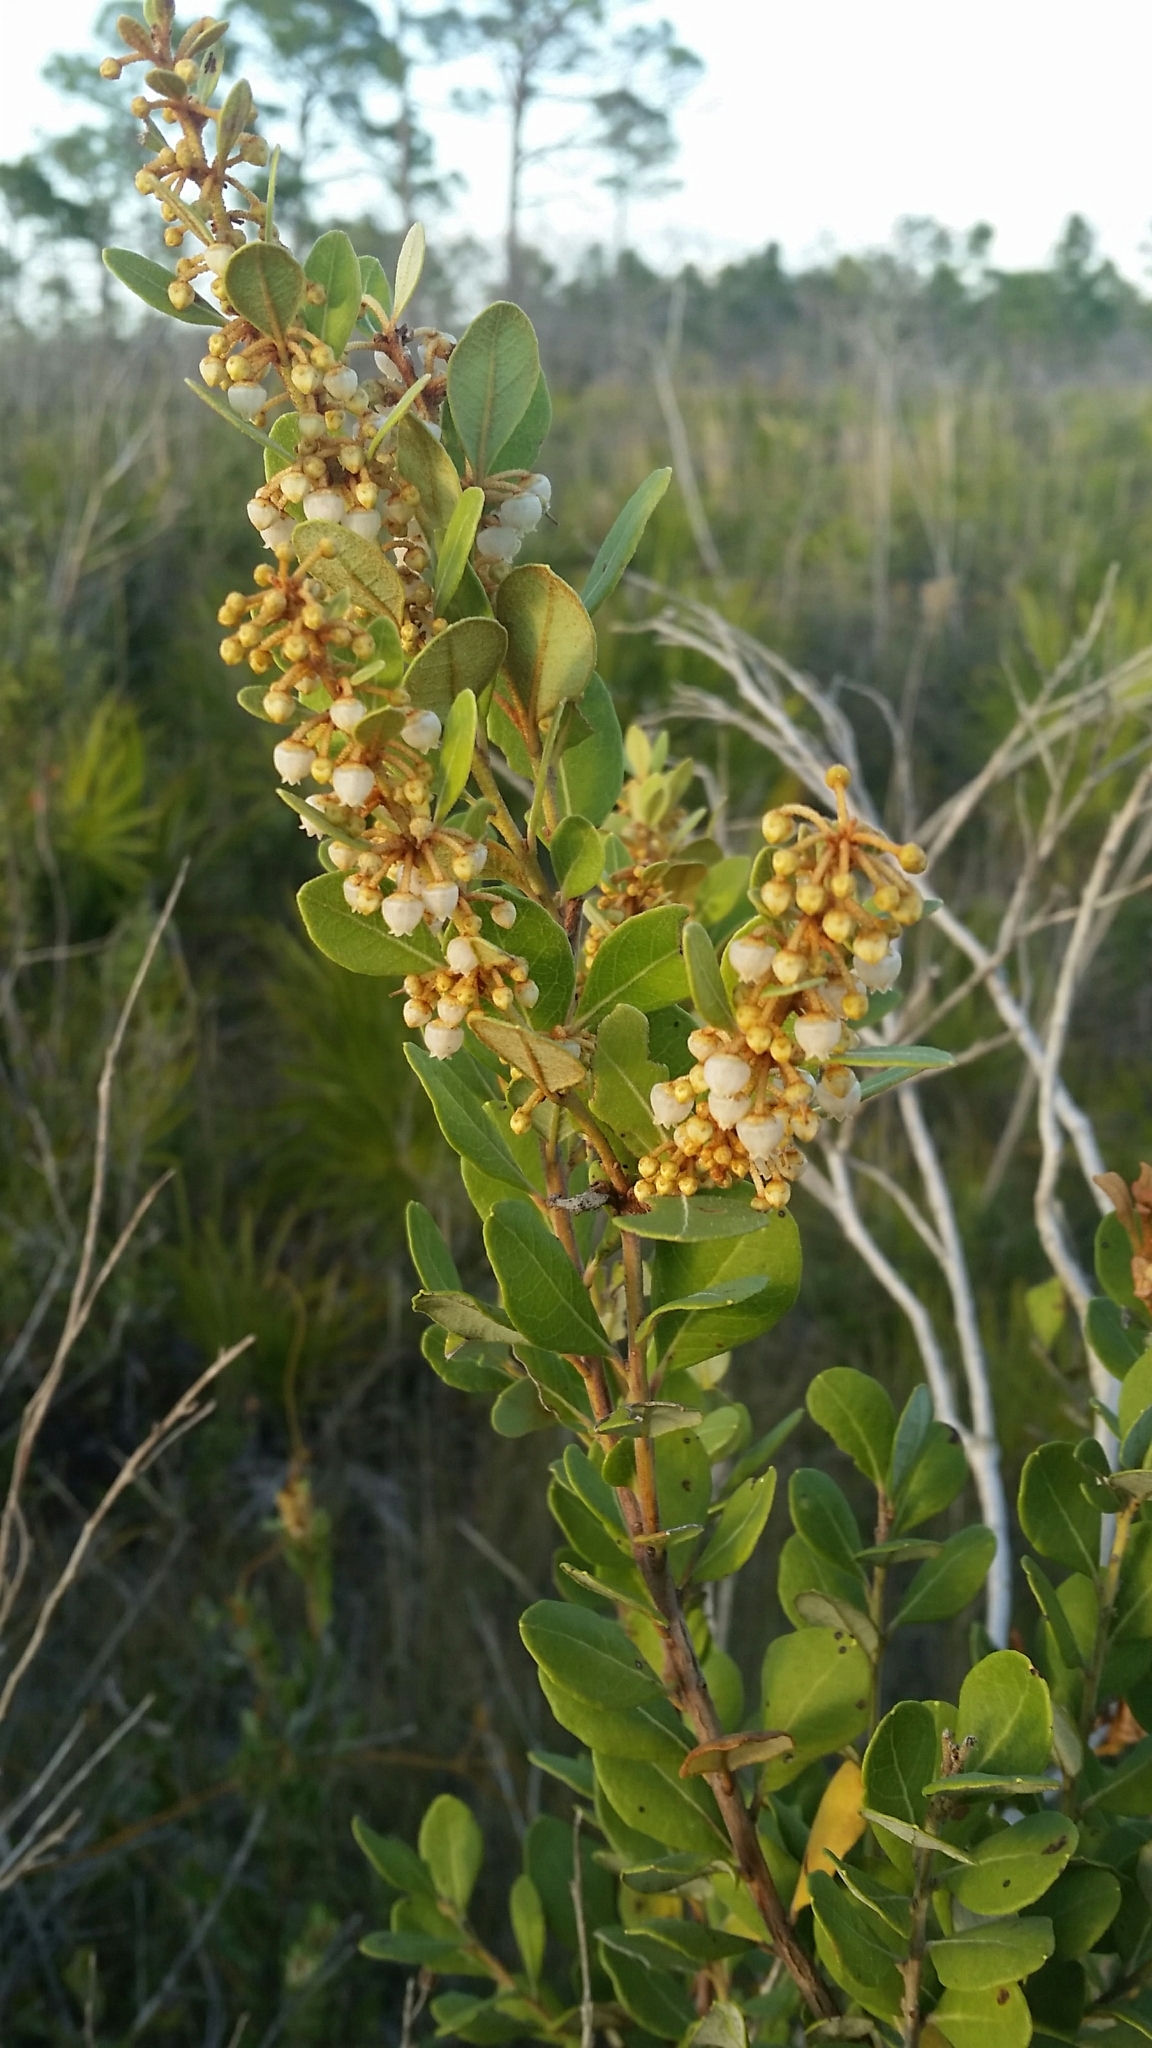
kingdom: Plantae
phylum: Tracheophyta
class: Magnoliopsida
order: Ericales
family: Ericaceae
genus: Lyonia
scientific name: Lyonia fruticosa
